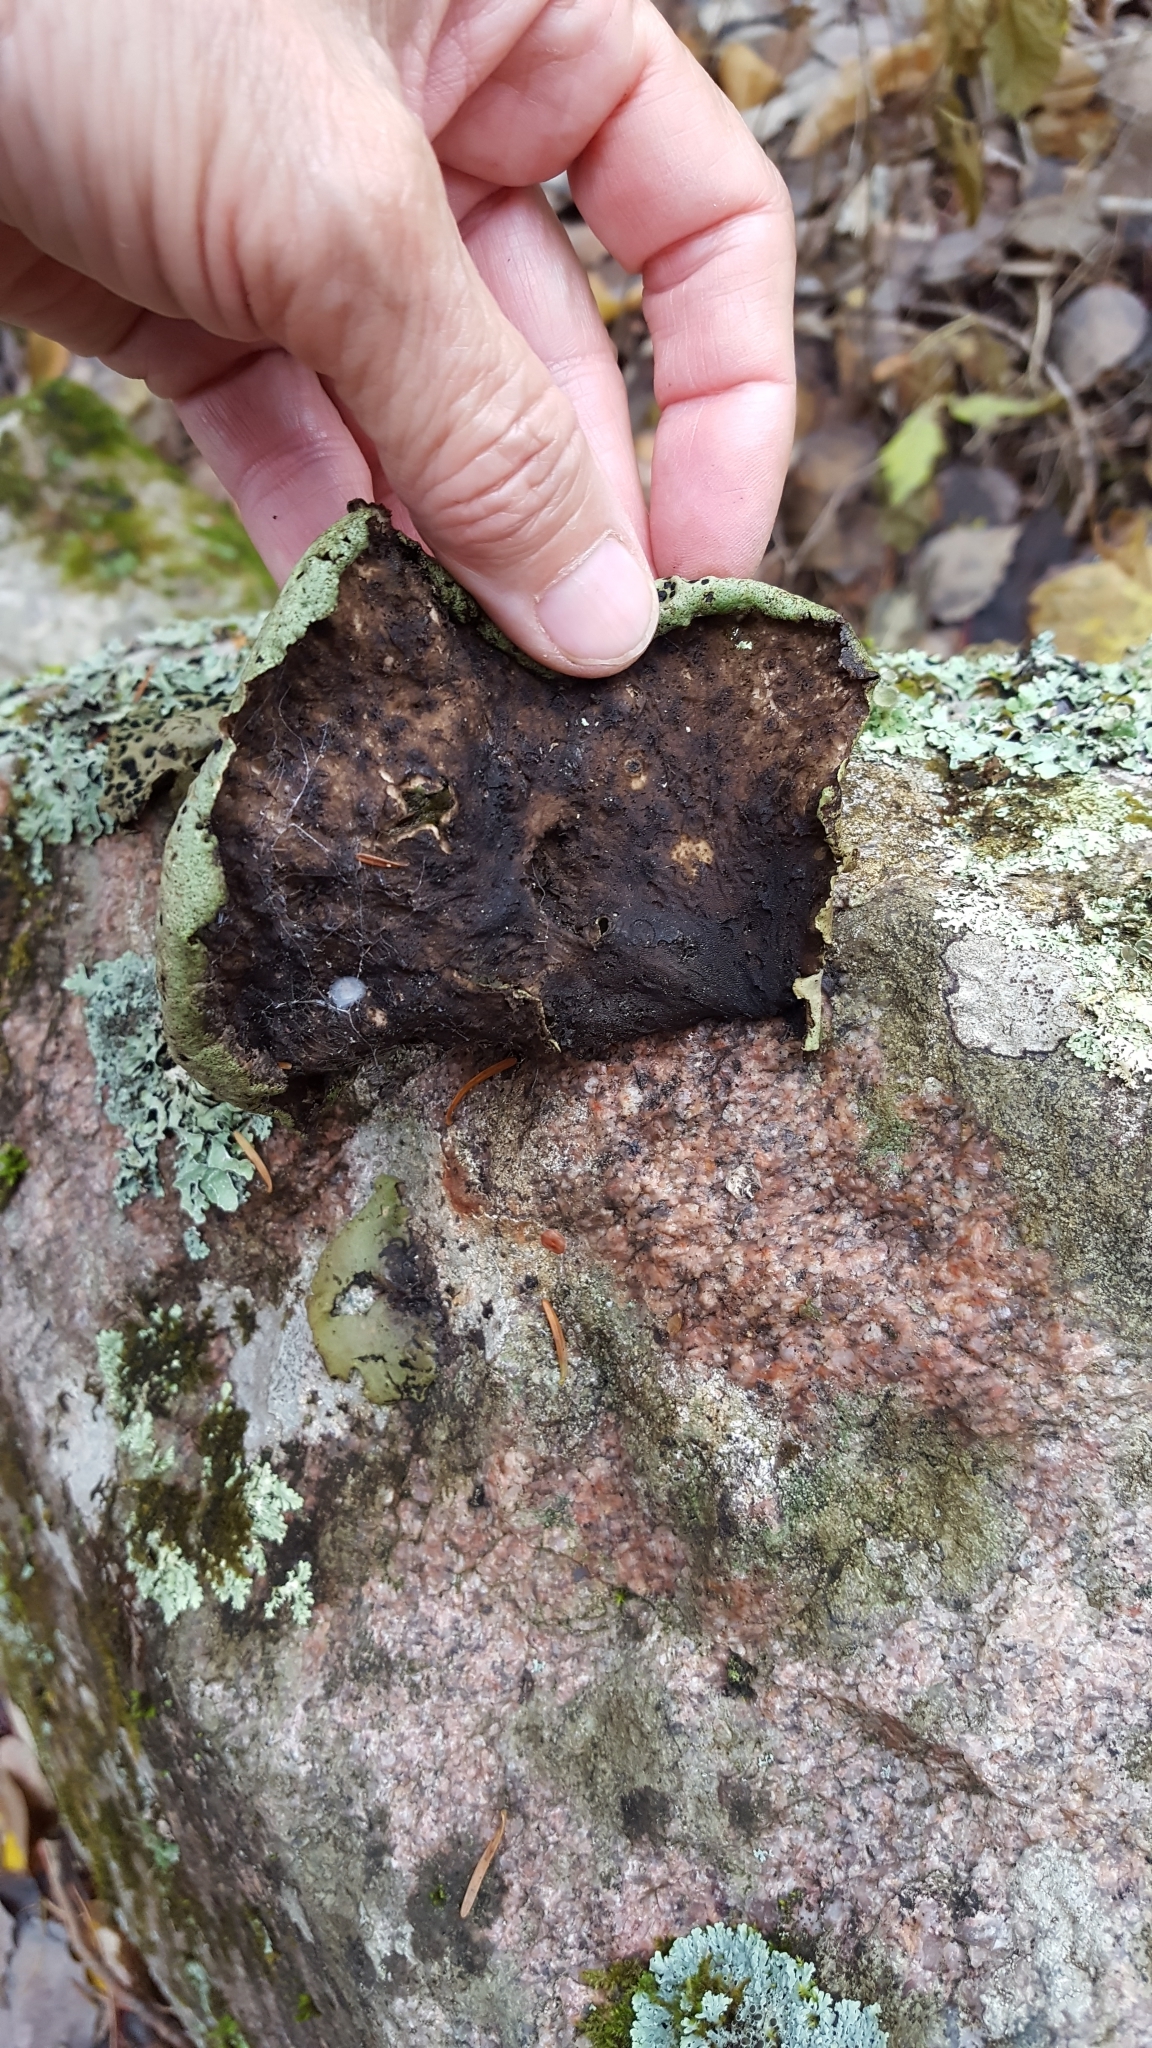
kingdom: Fungi
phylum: Ascomycota
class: Lecanoromycetes
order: Umbilicariales
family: Umbilicariaceae
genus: Umbilicaria
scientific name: Umbilicaria muhlenbergii
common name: Lesser rocktripe
